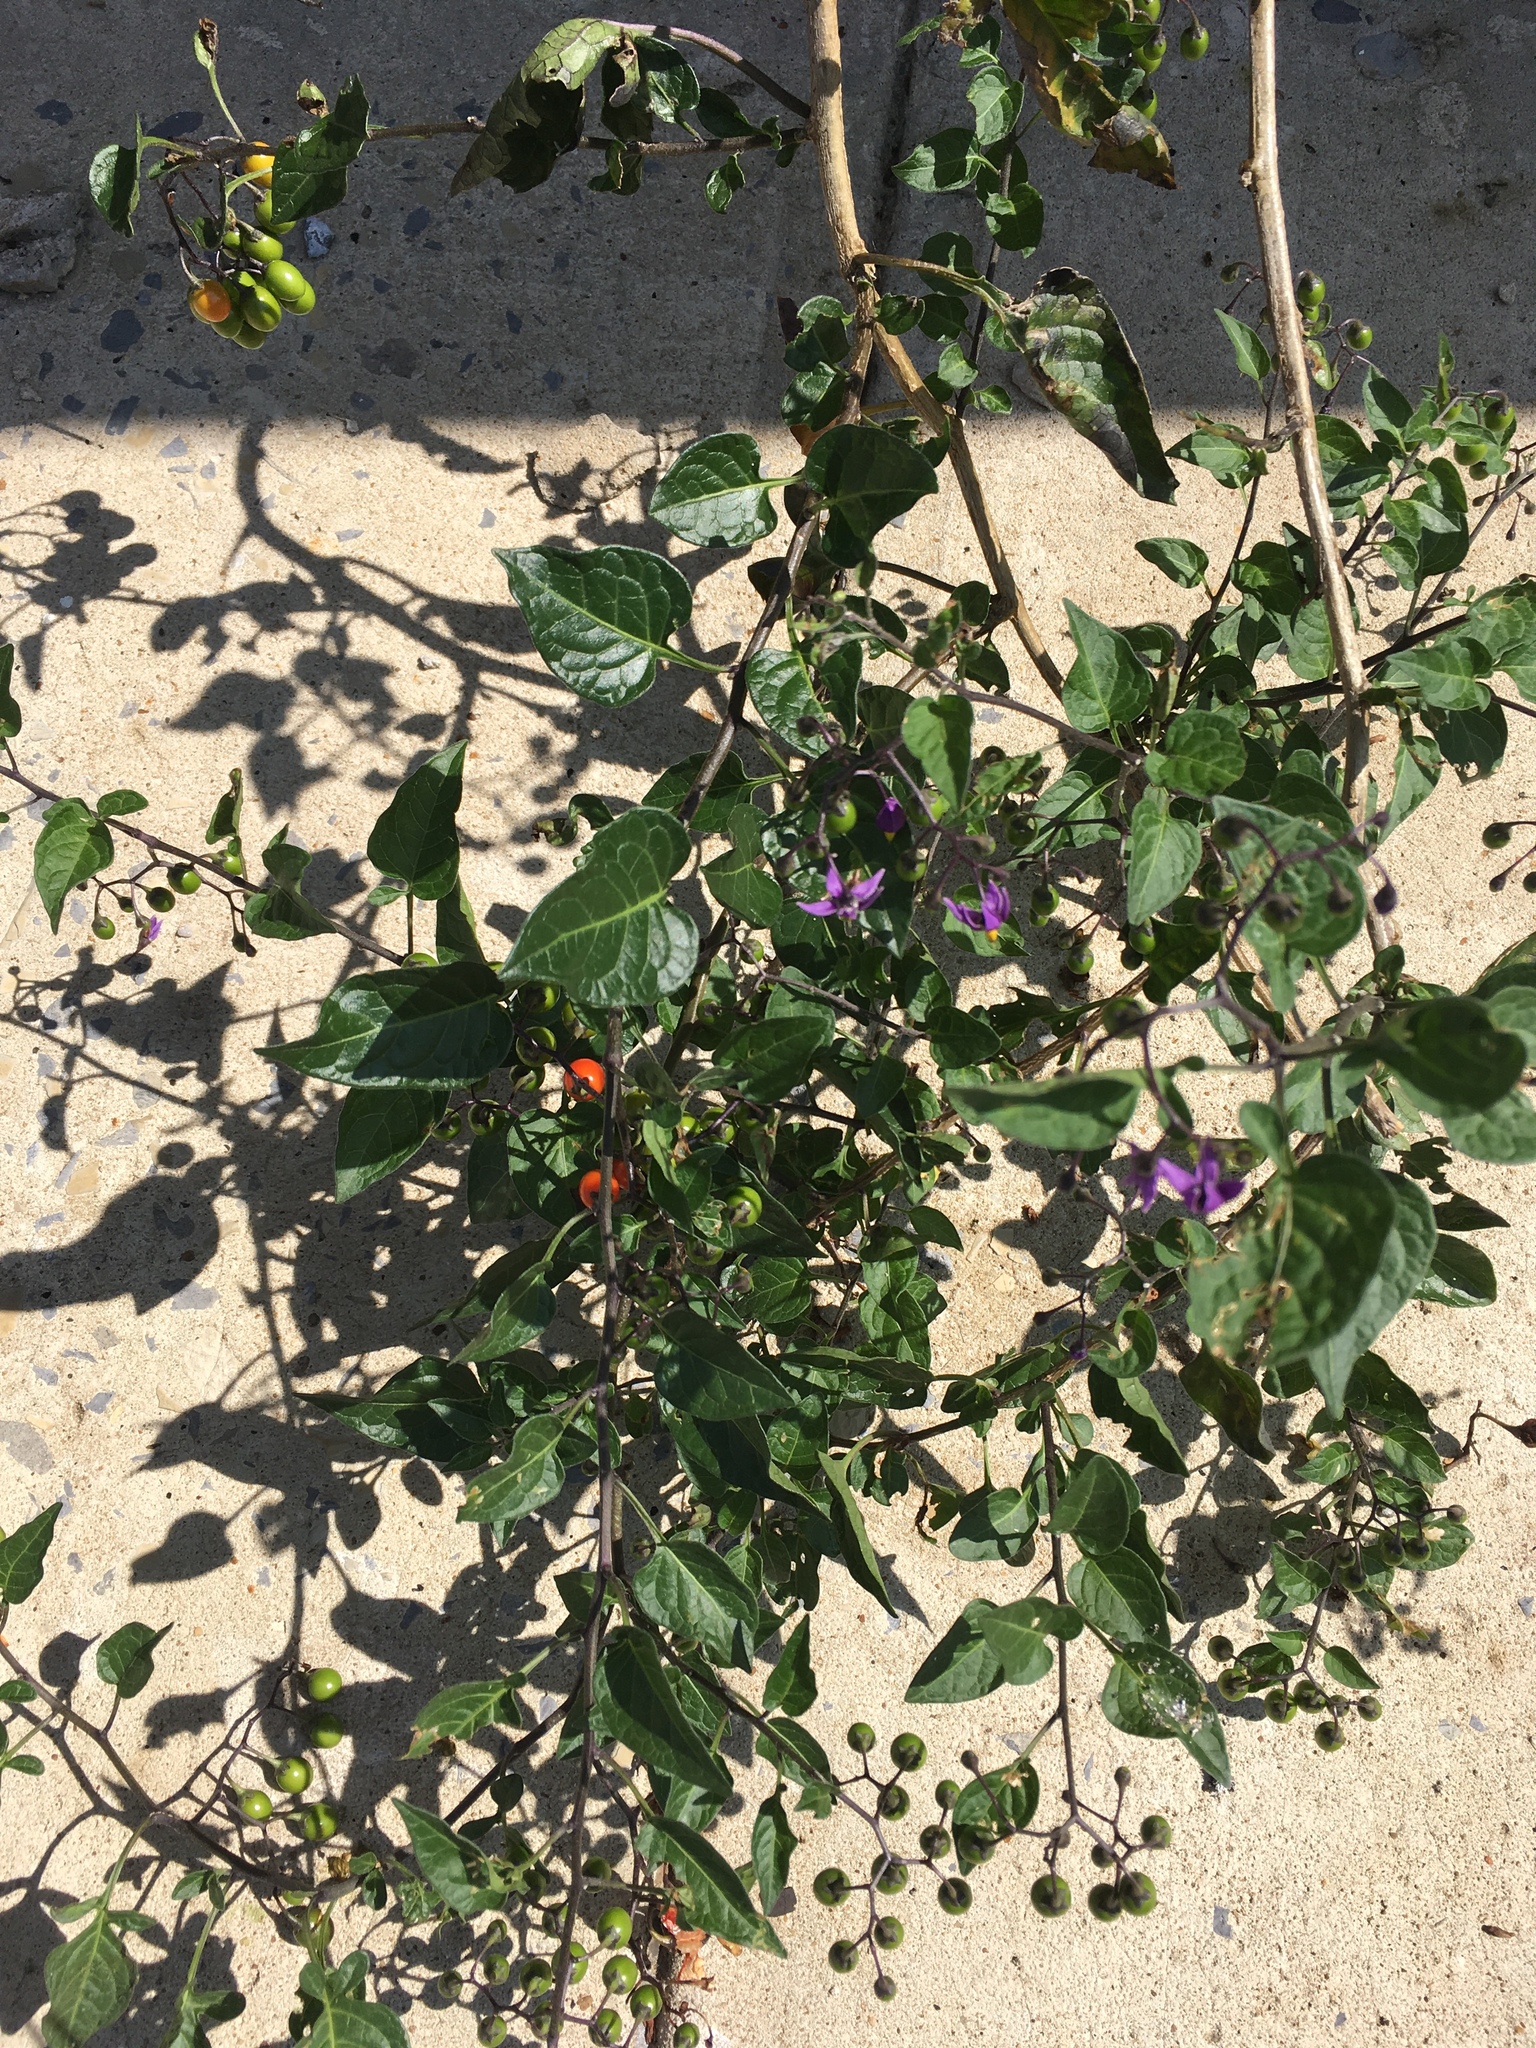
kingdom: Plantae
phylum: Tracheophyta
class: Magnoliopsida
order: Solanales
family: Solanaceae
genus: Solanum
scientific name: Solanum dulcamara
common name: Climbing nightshade
